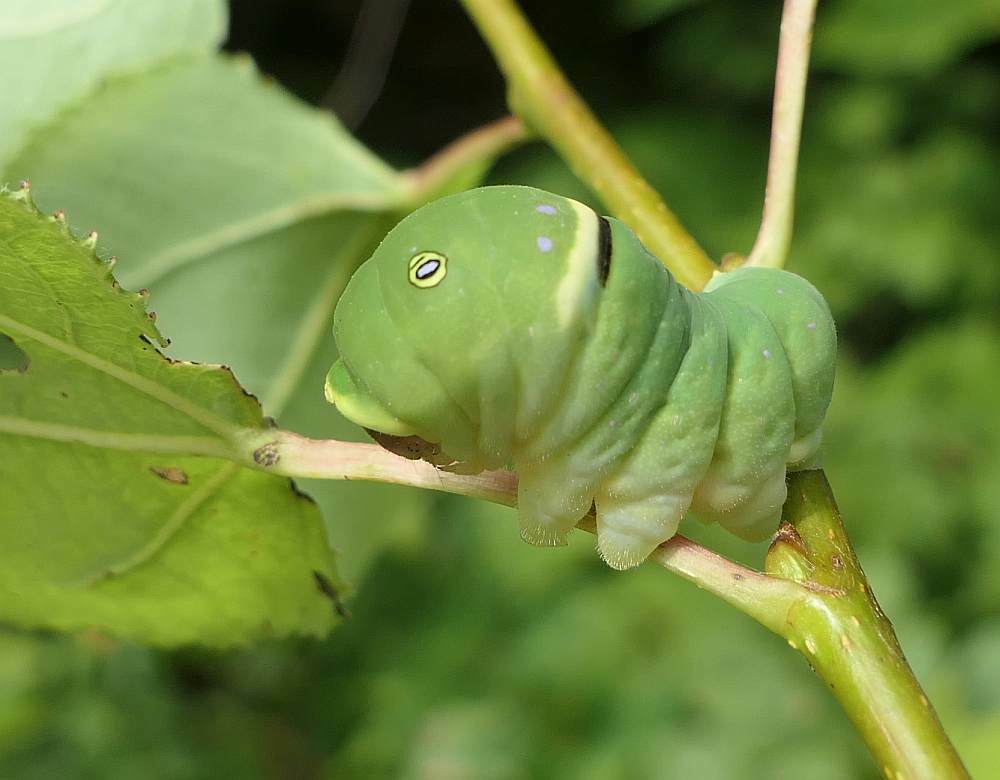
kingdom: Animalia
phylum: Arthropoda
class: Insecta
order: Lepidoptera
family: Papilionidae
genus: Papilio
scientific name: Papilio canadensis
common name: Canadian tiger swallowtail
